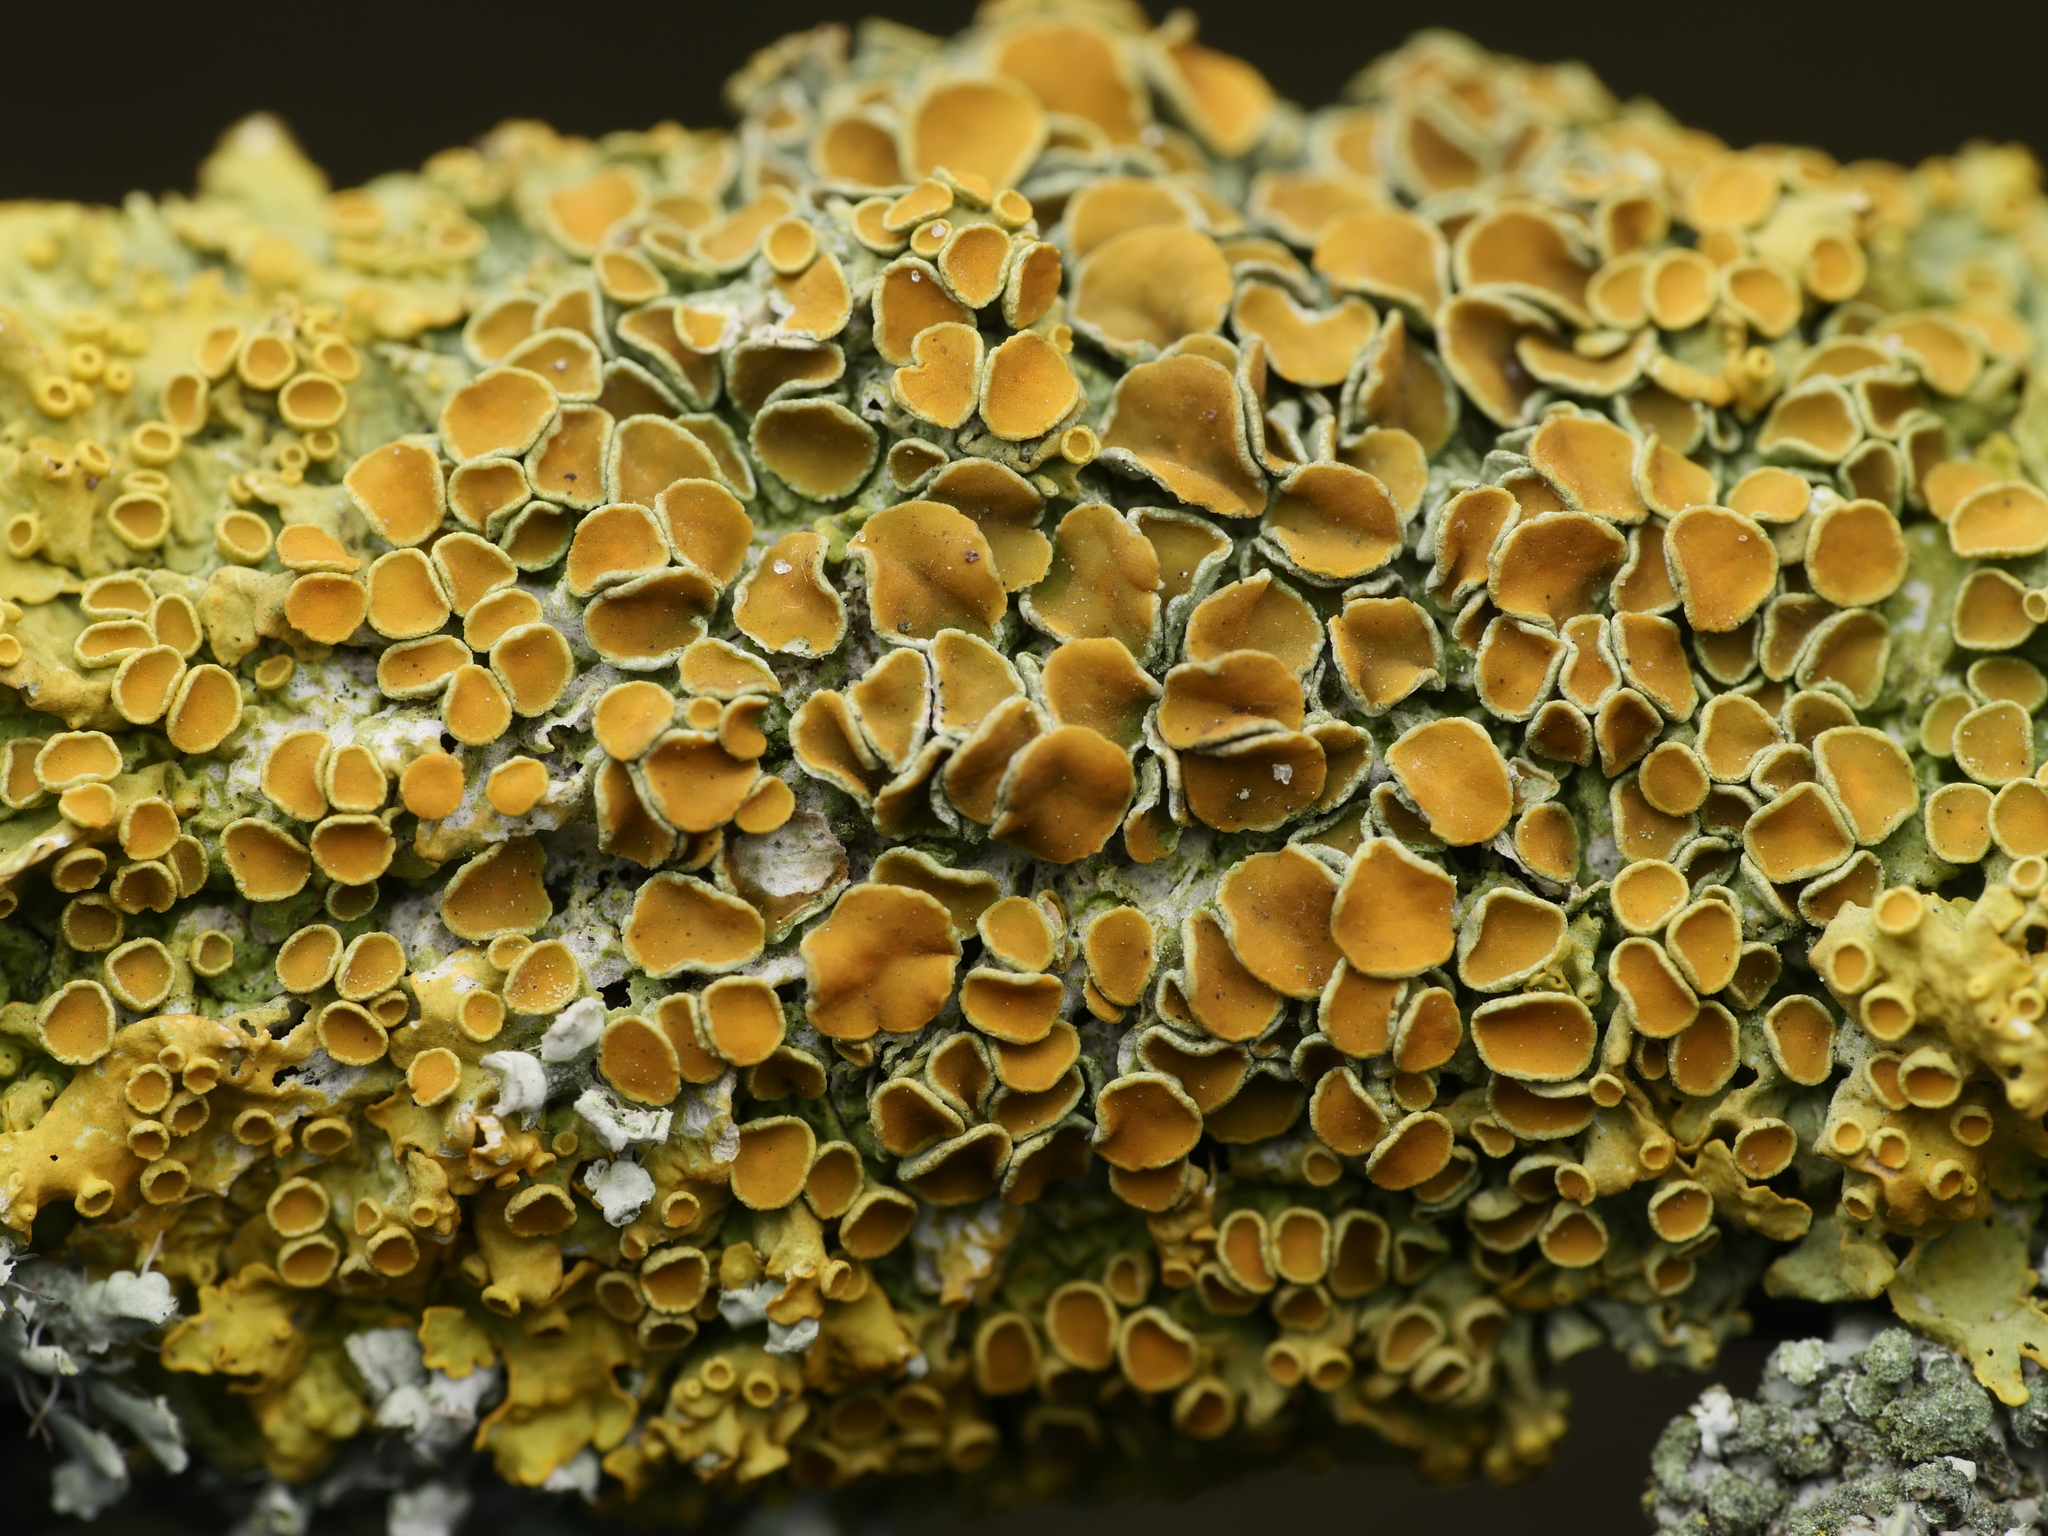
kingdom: Fungi
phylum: Ascomycota
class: Lecanoromycetes
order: Teloschistales
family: Teloschistaceae
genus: Xanthoria
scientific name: Xanthoria parietina
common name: Common orange lichen
